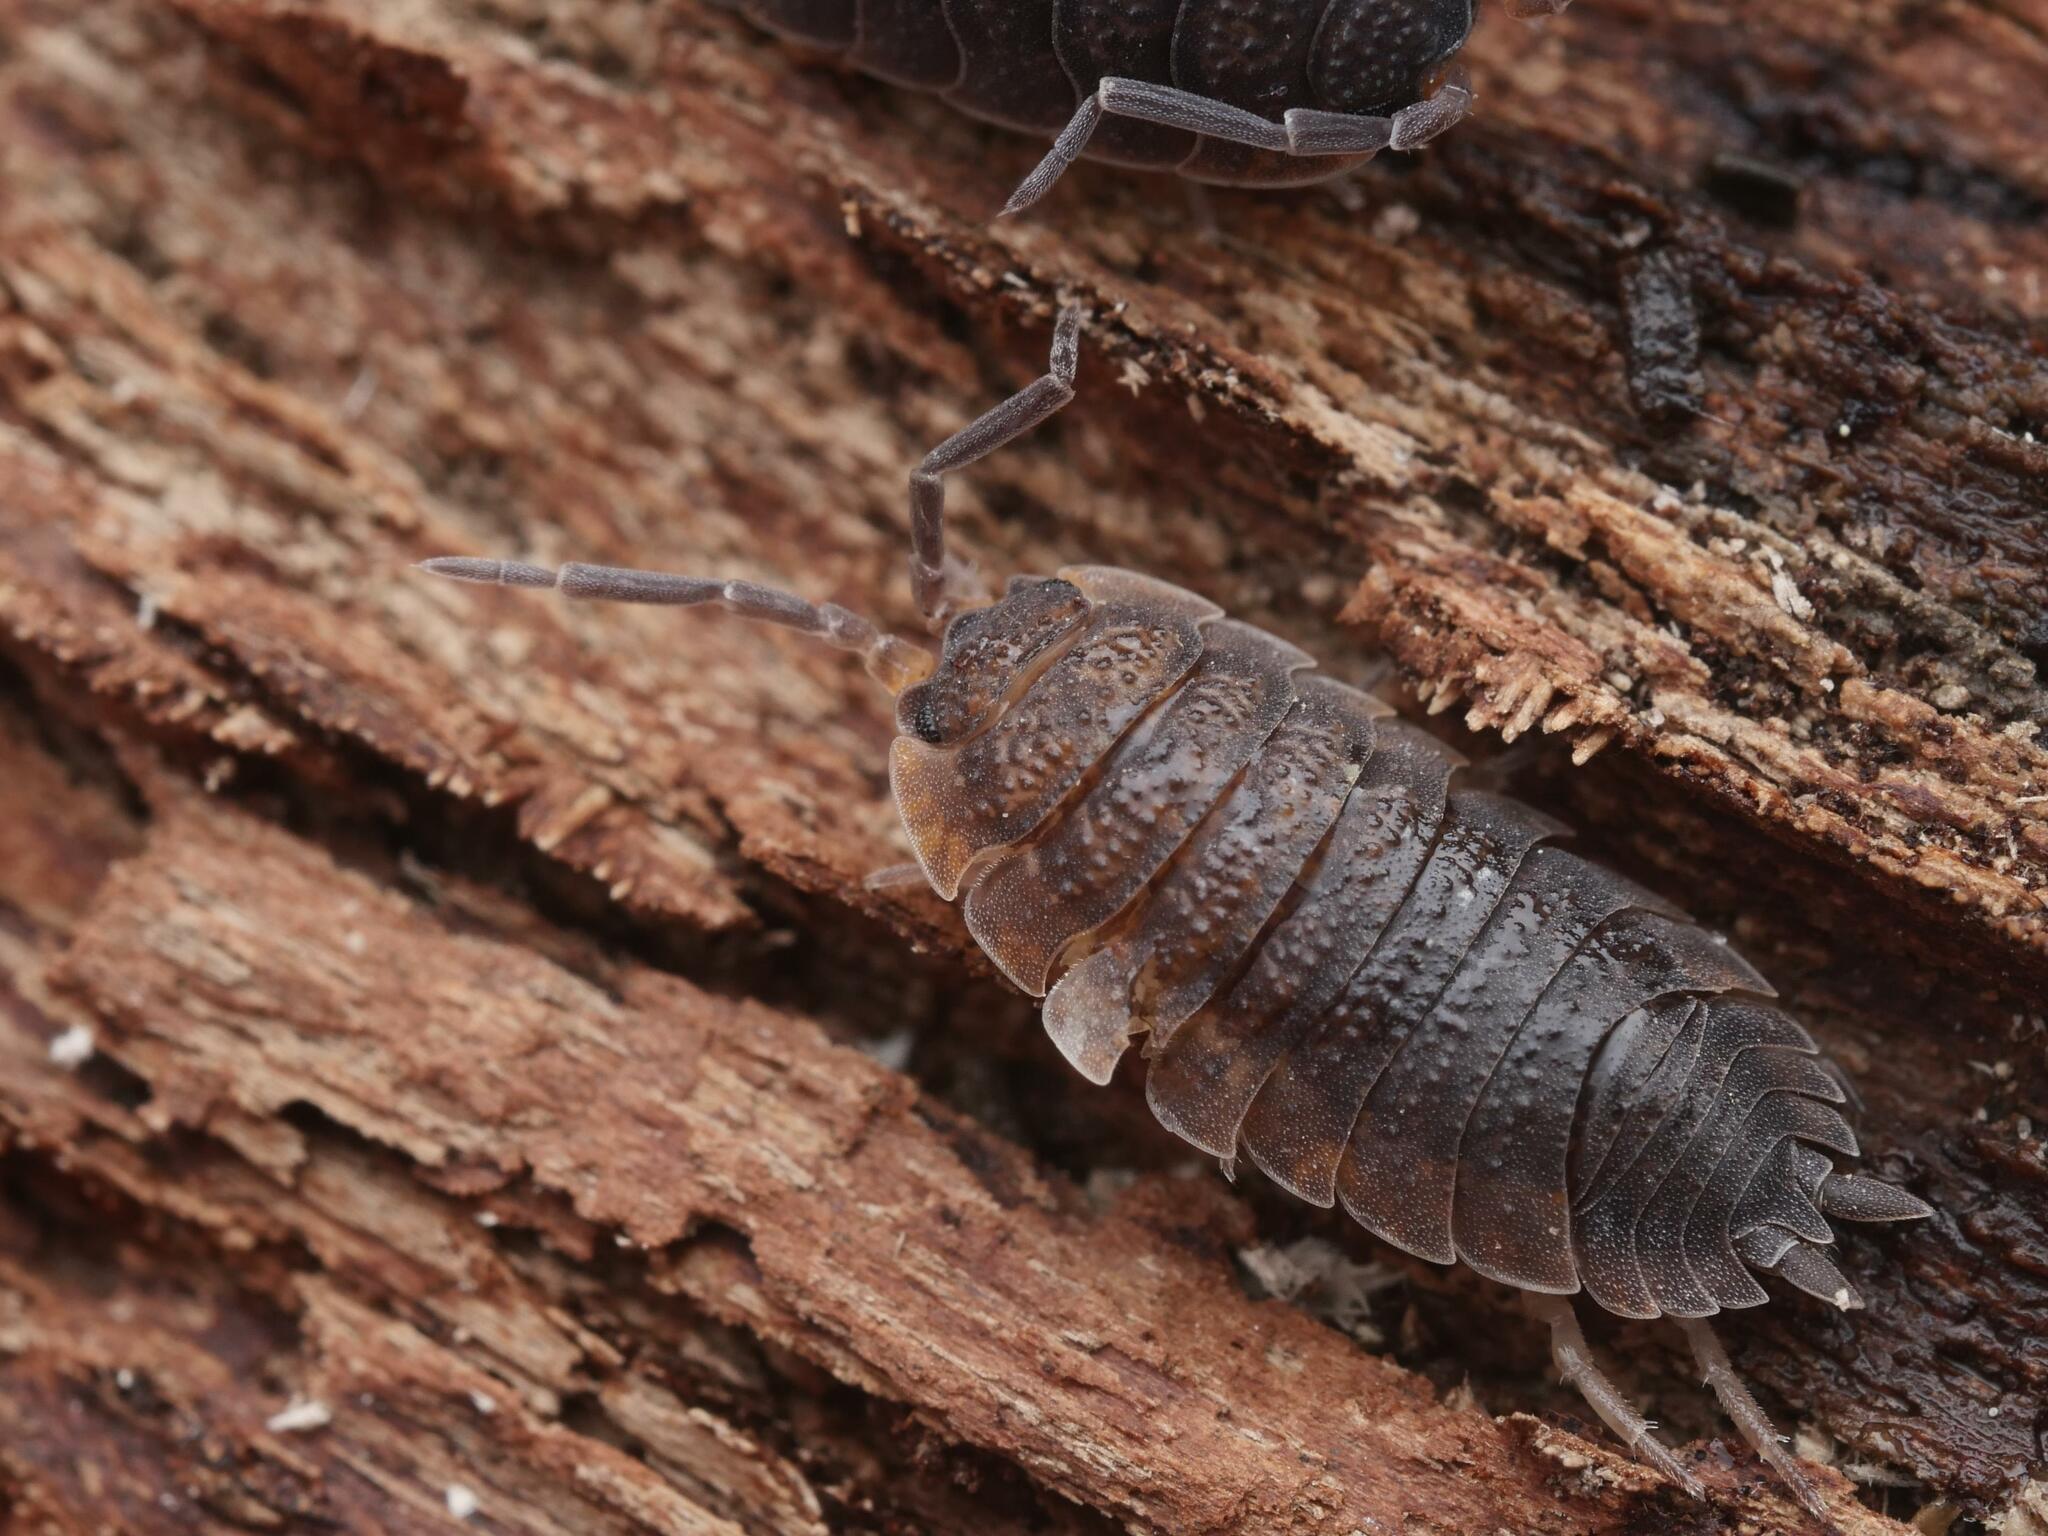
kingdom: Animalia
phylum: Arthropoda
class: Malacostraca
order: Isopoda
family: Porcellionidae
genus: Porcellio
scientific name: Porcellio scaber
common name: Common rough woodlouse
